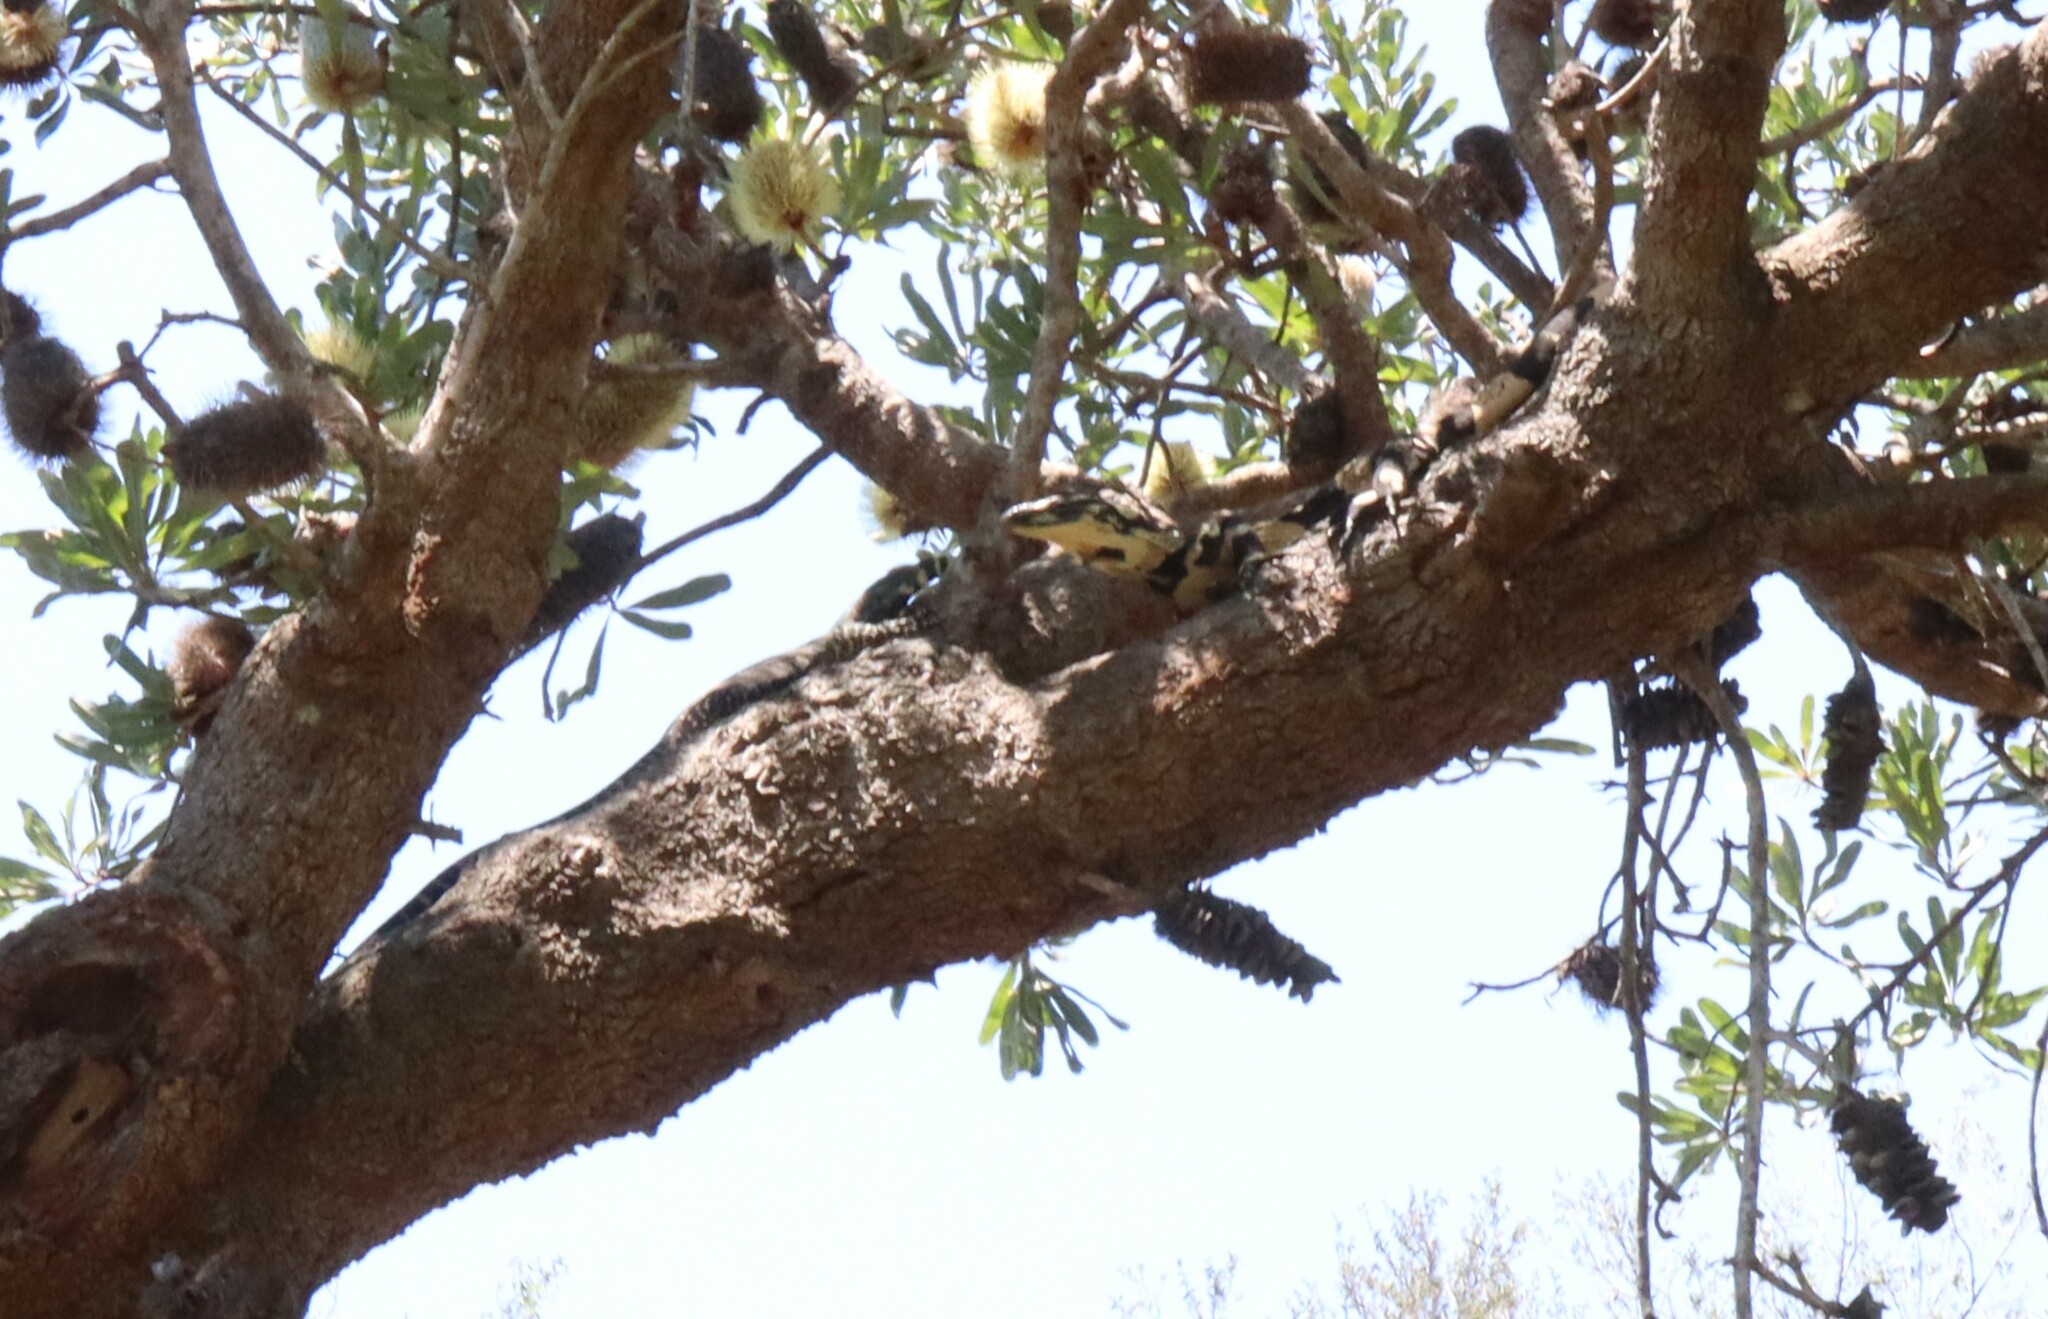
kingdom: Animalia
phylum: Chordata
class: Squamata
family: Varanidae
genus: Varanus
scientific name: Varanus varius
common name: Lace monitor
